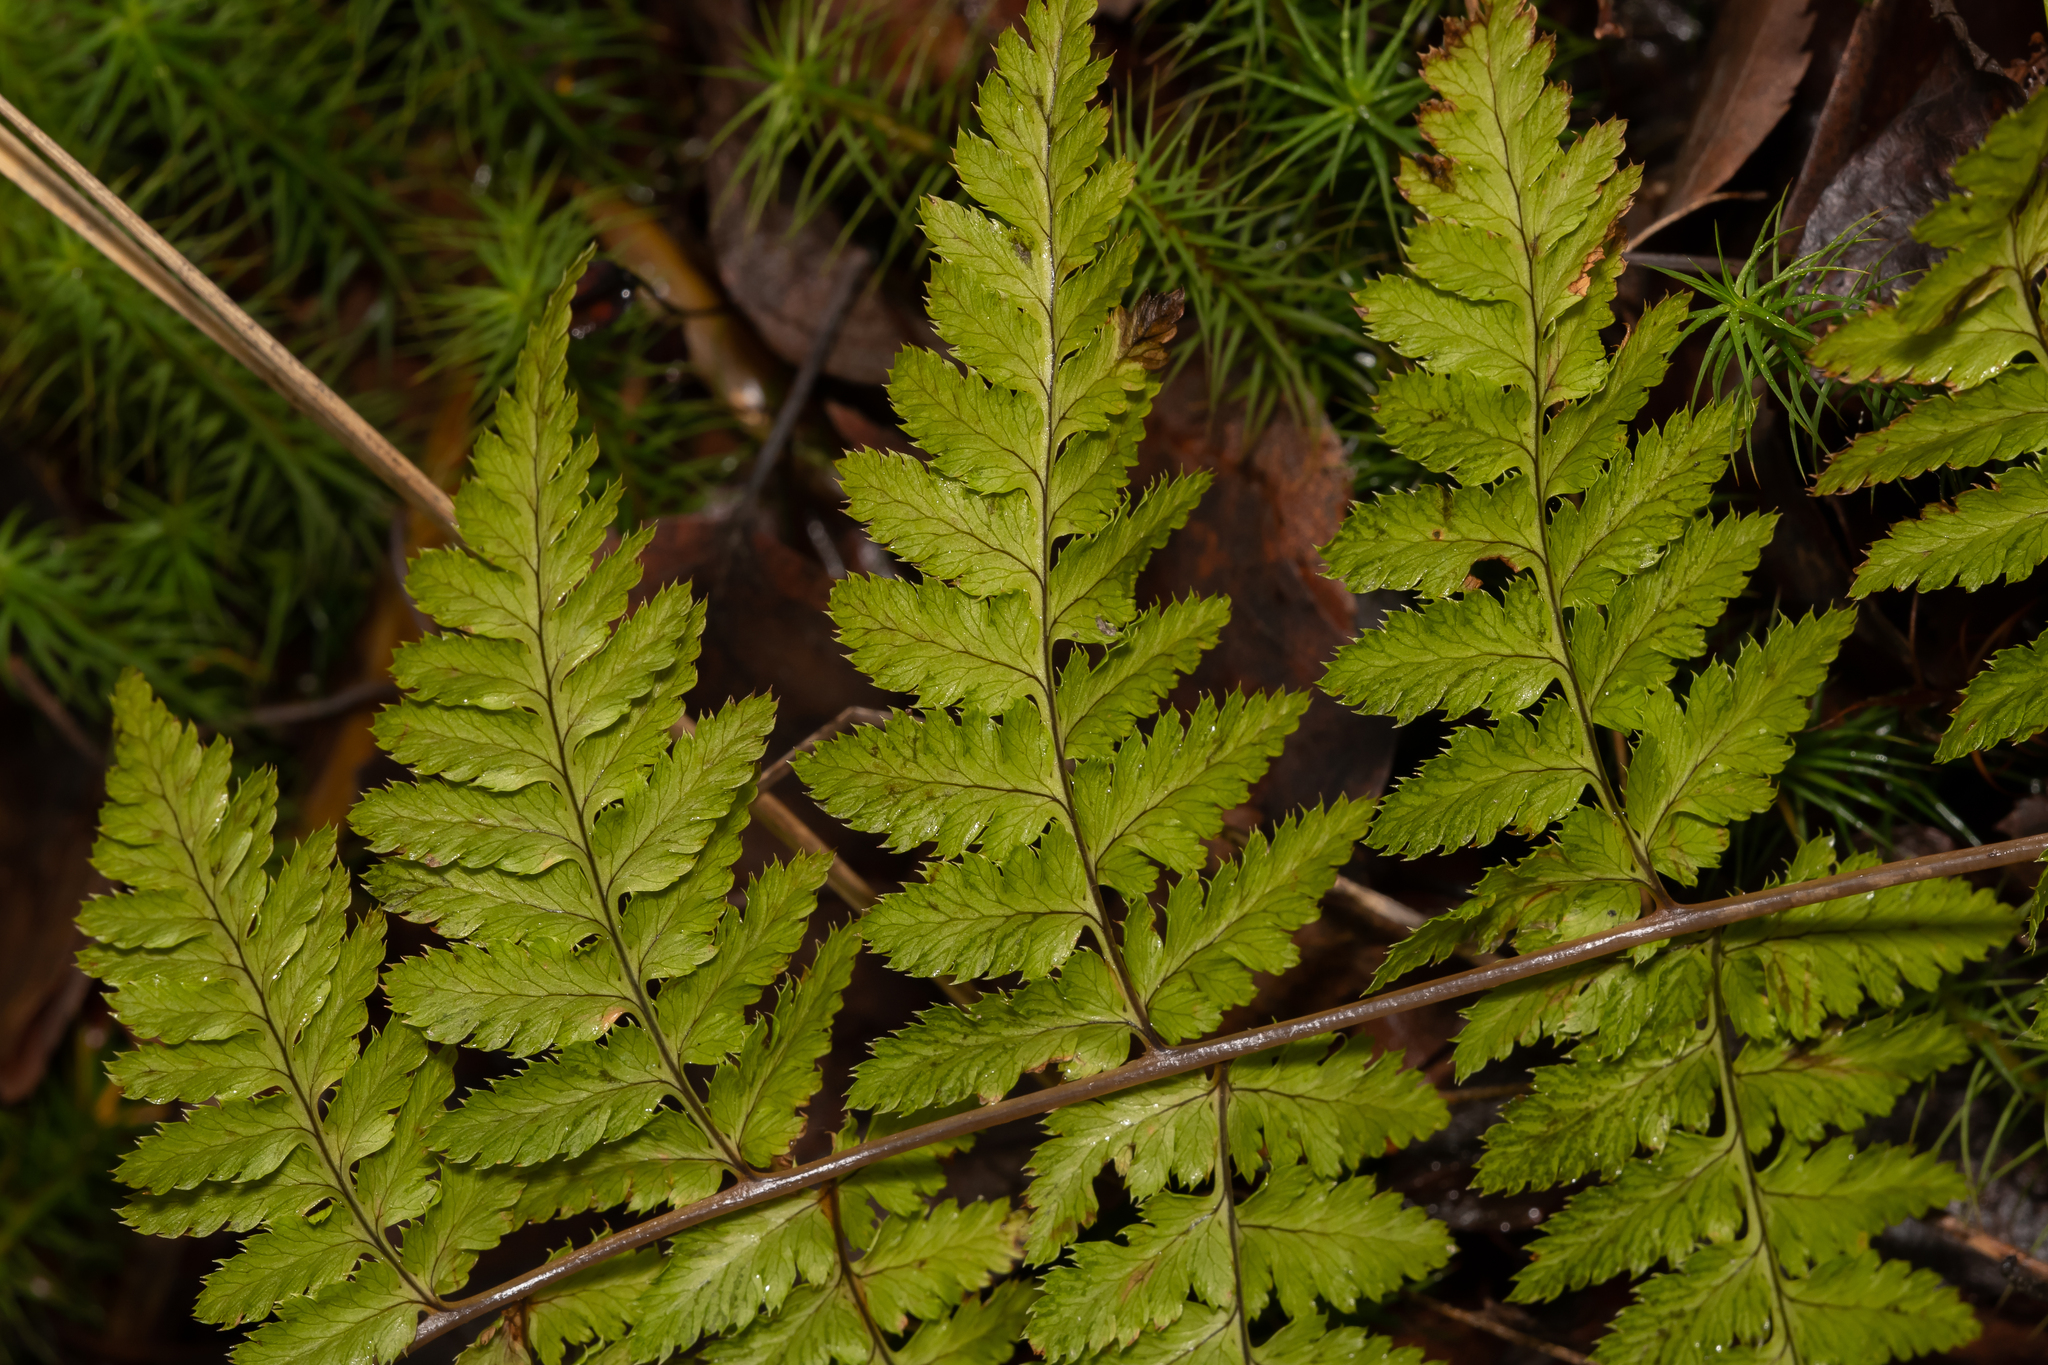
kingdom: Plantae
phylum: Tracheophyta
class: Polypodiopsida
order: Polypodiales
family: Dryopteridaceae
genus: Dryopteris
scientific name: Dryopteris carthusiana
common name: Narrow buckler-fern
